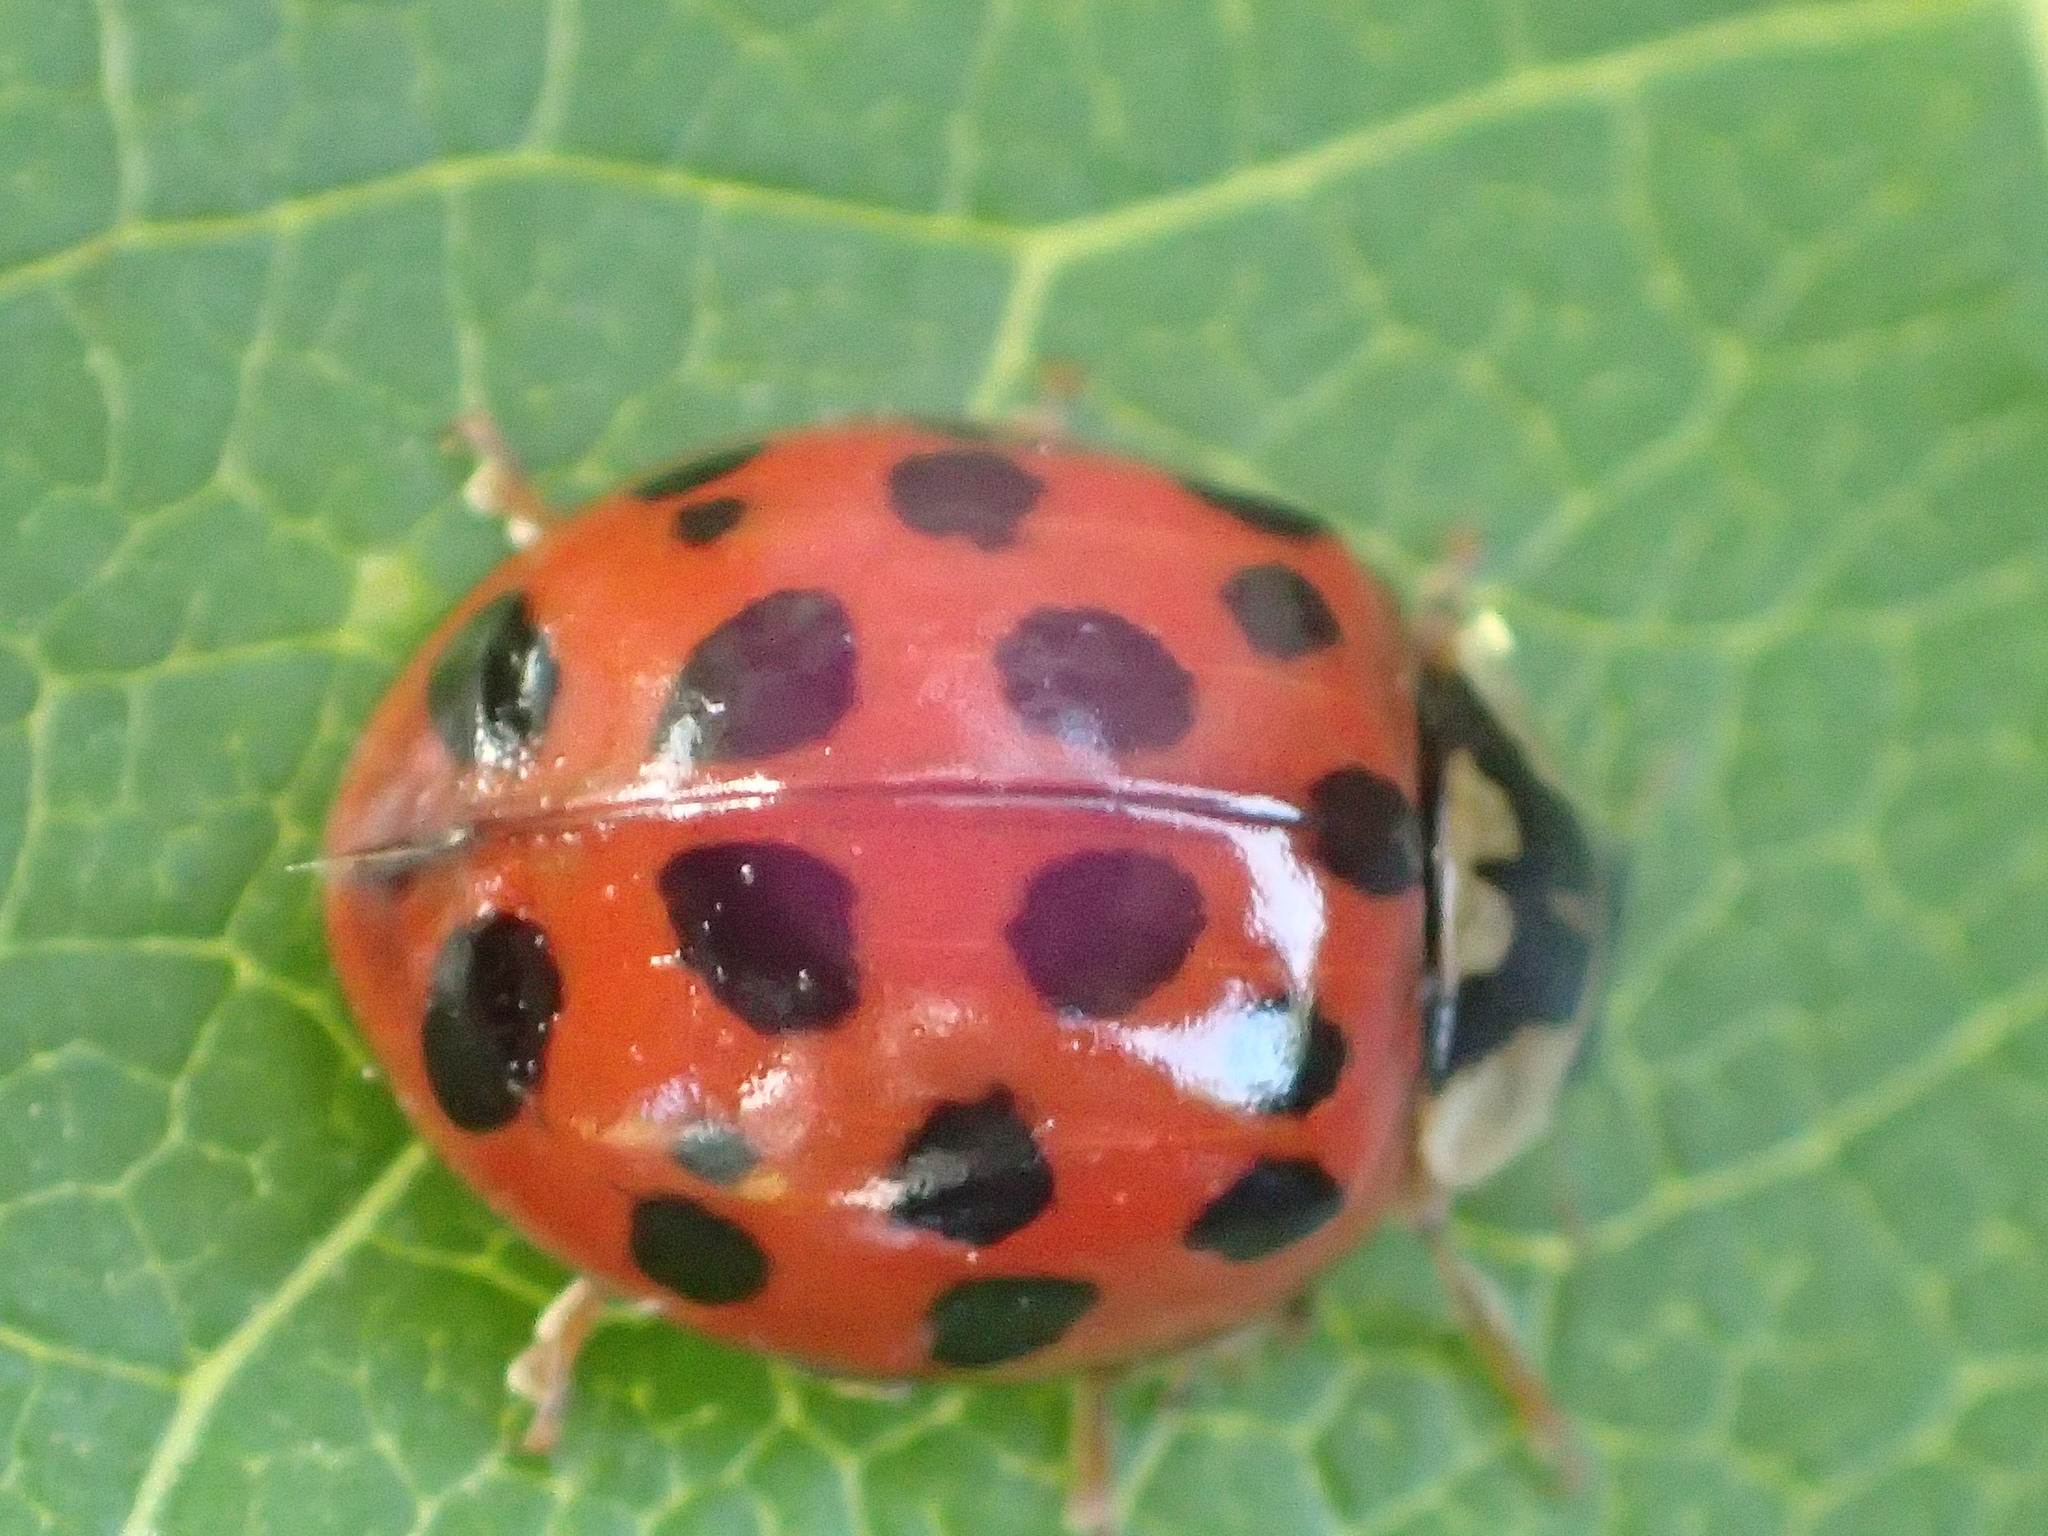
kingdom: Animalia
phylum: Arthropoda
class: Insecta
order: Coleoptera
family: Coccinellidae
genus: Harmonia
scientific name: Harmonia axyridis
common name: Harlequin ladybird
